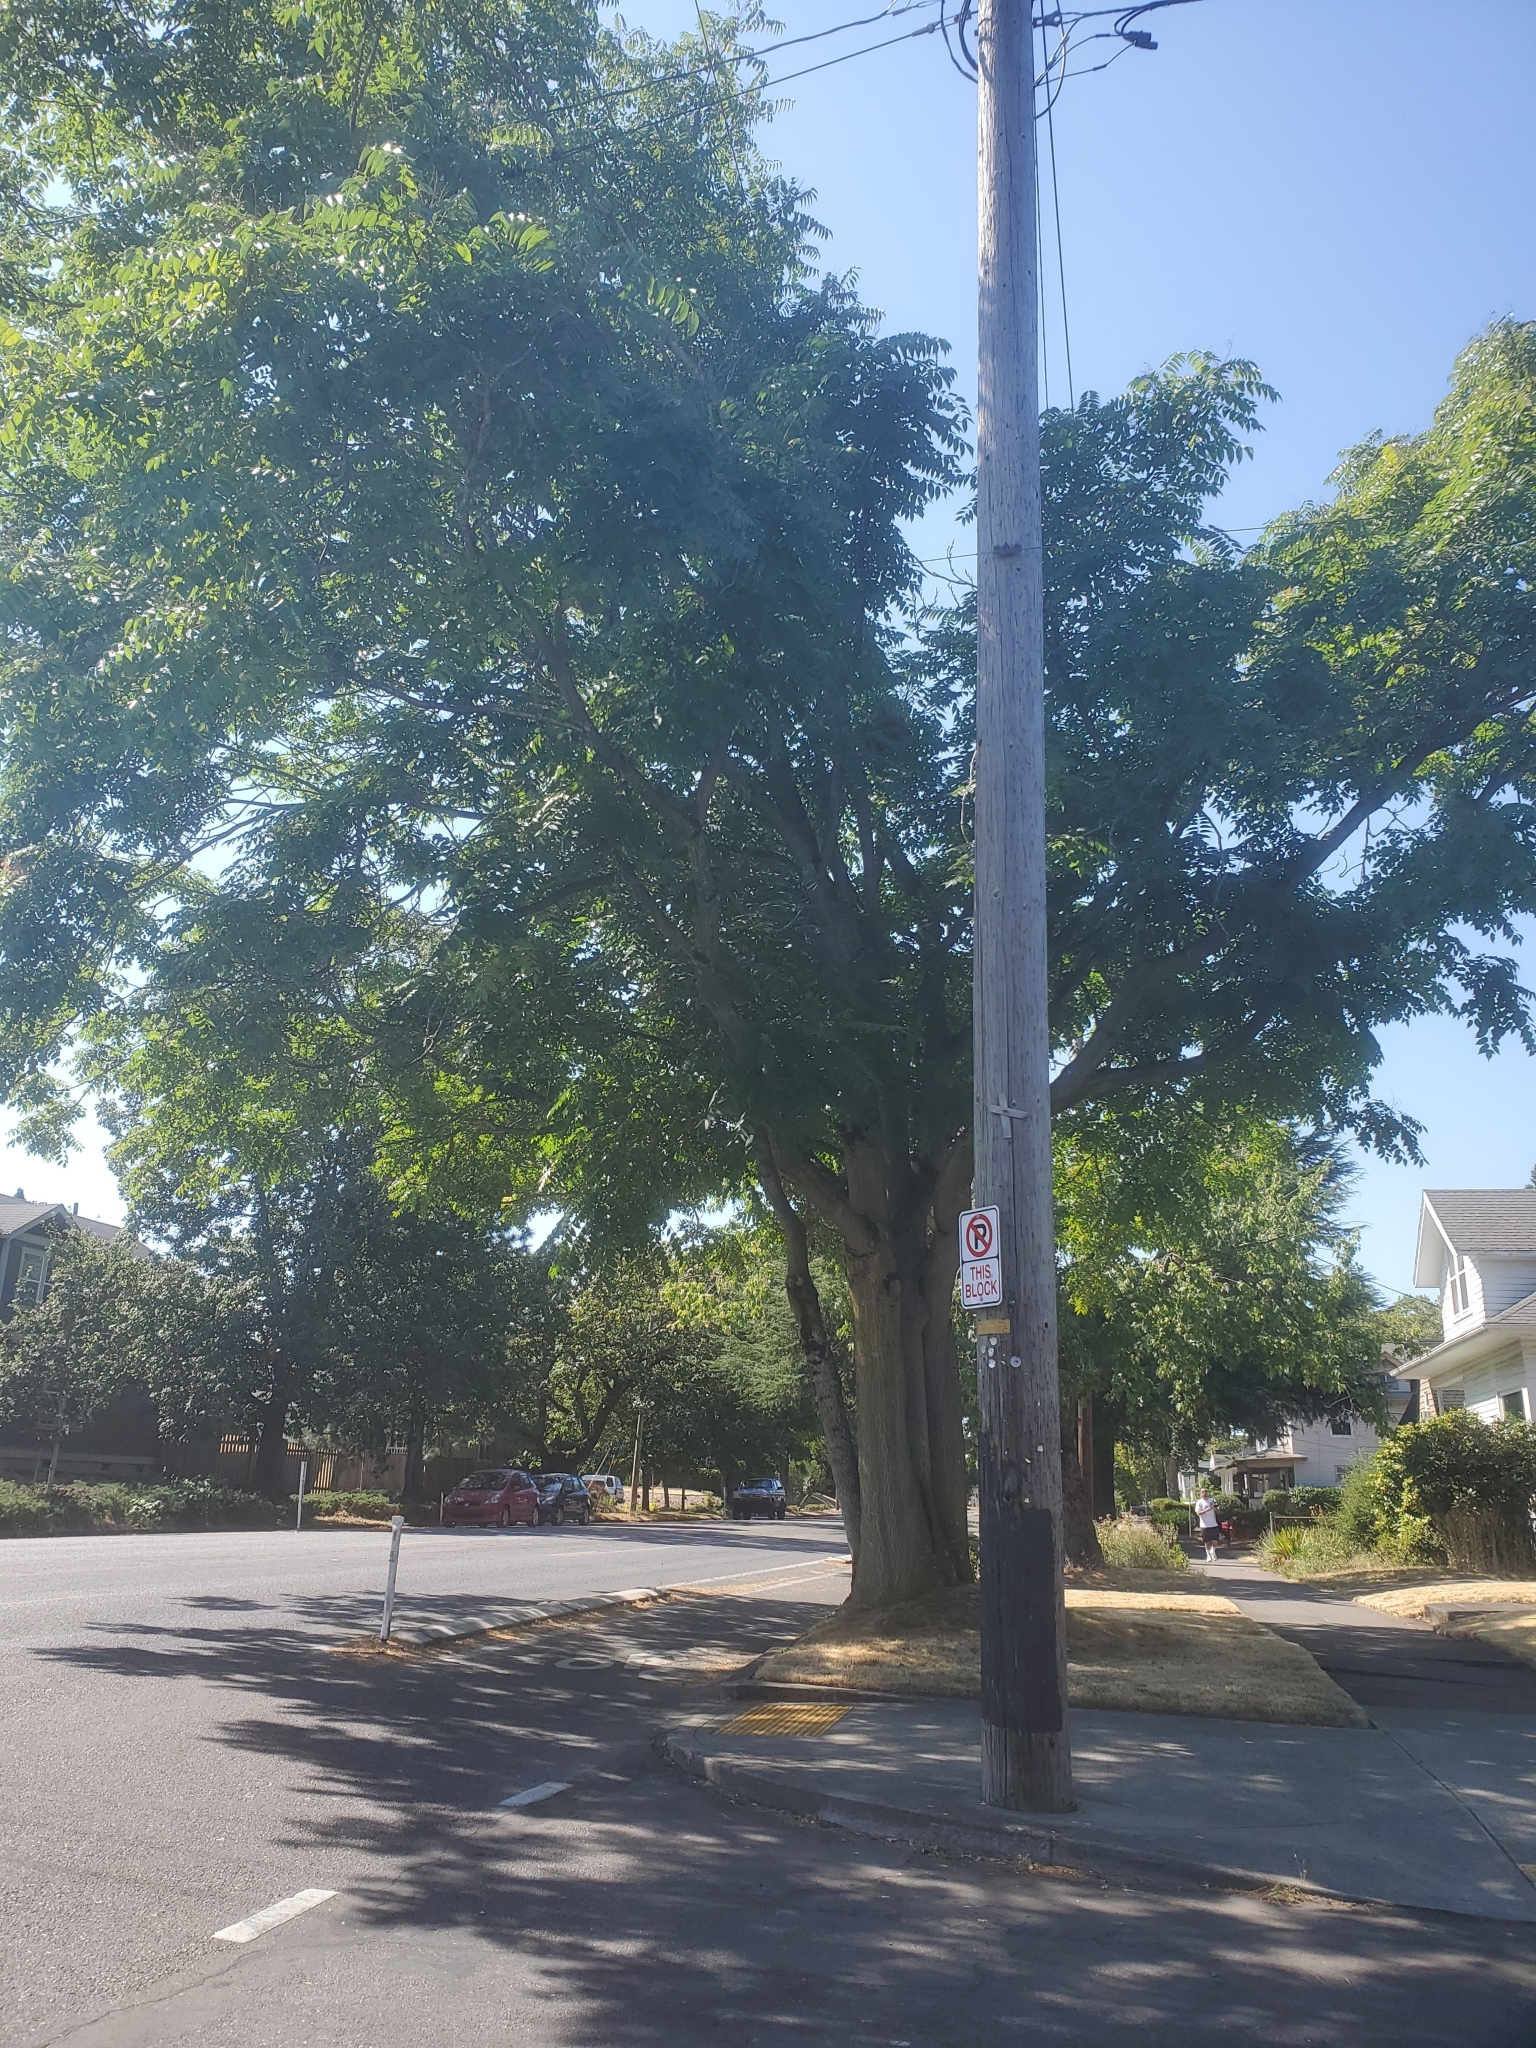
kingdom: Plantae
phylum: Tracheophyta
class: Magnoliopsida
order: Sapindales
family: Simaroubaceae
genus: Ailanthus
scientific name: Ailanthus altissima
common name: Tree-of-heaven
